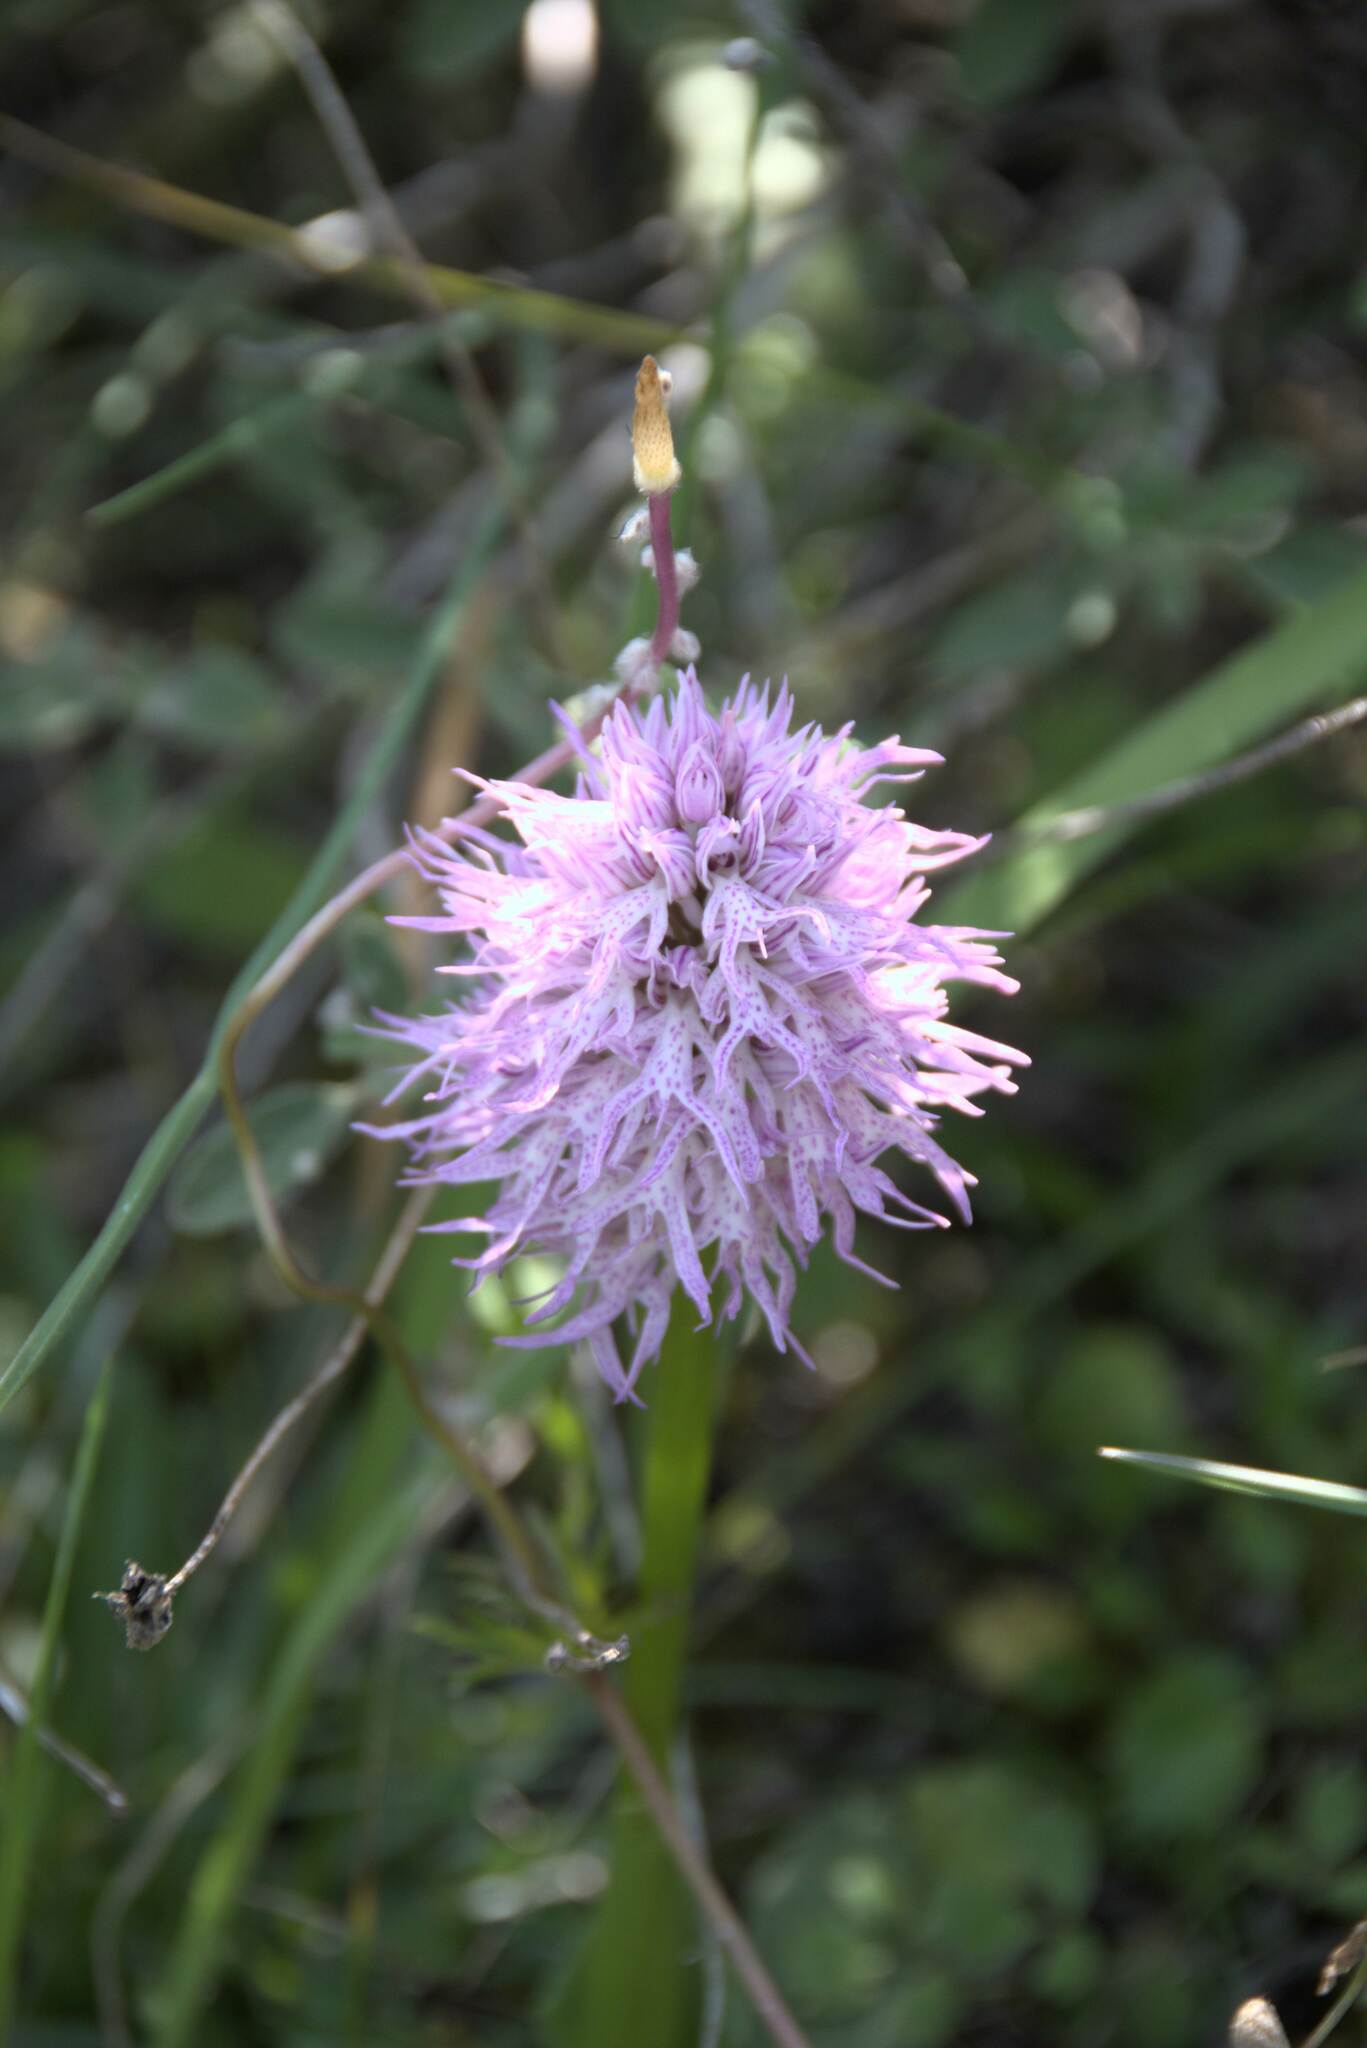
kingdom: Plantae
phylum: Tracheophyta
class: Liliopsida
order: Asparagales
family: Orchidaceae
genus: Orchis
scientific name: Orchis italica
